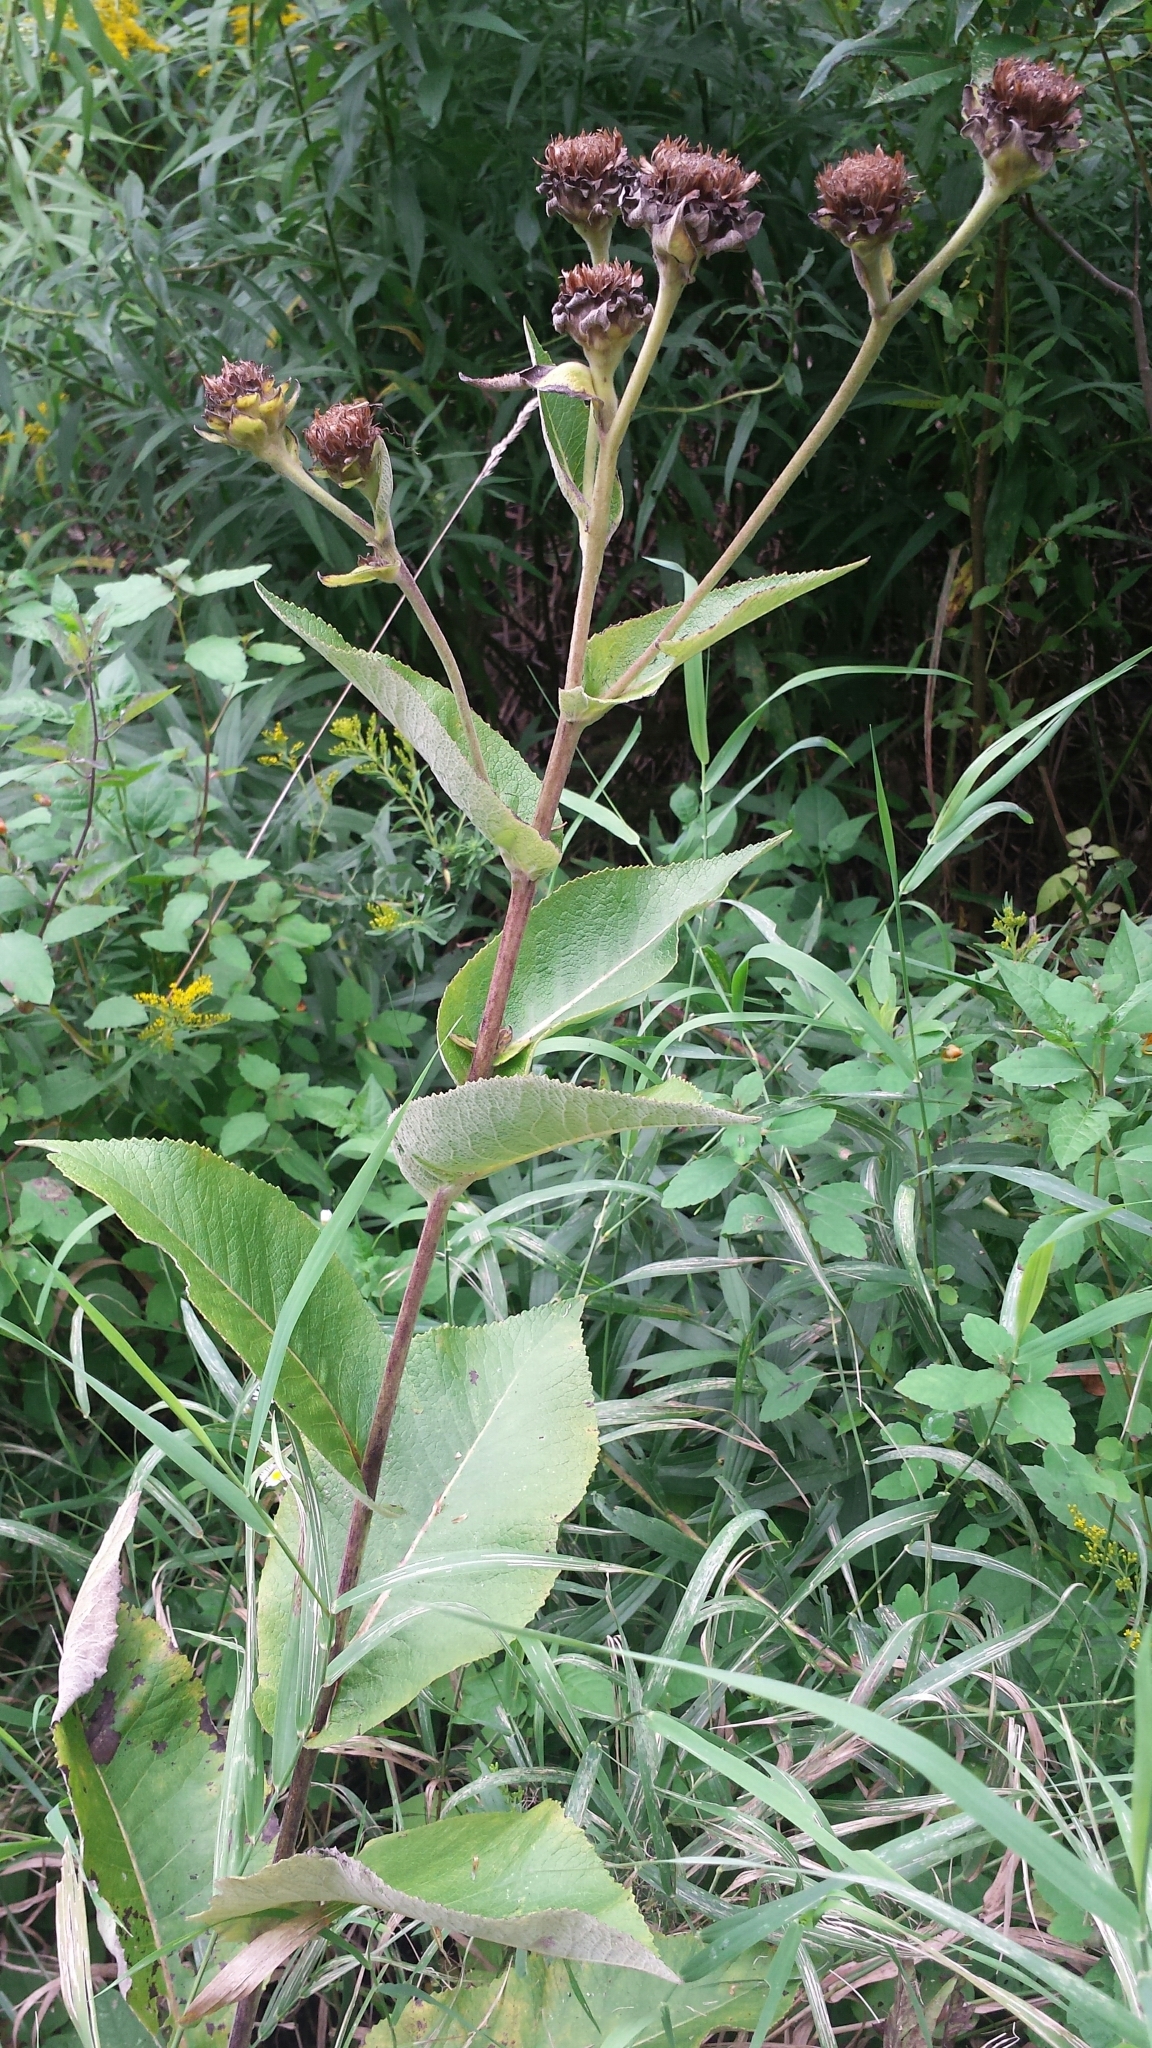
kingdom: Plantae
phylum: Tracheophyta
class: Magnoliopsida
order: Asterales
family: Asteraceae
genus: Inula
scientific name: Inula helenium
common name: Elecampane
